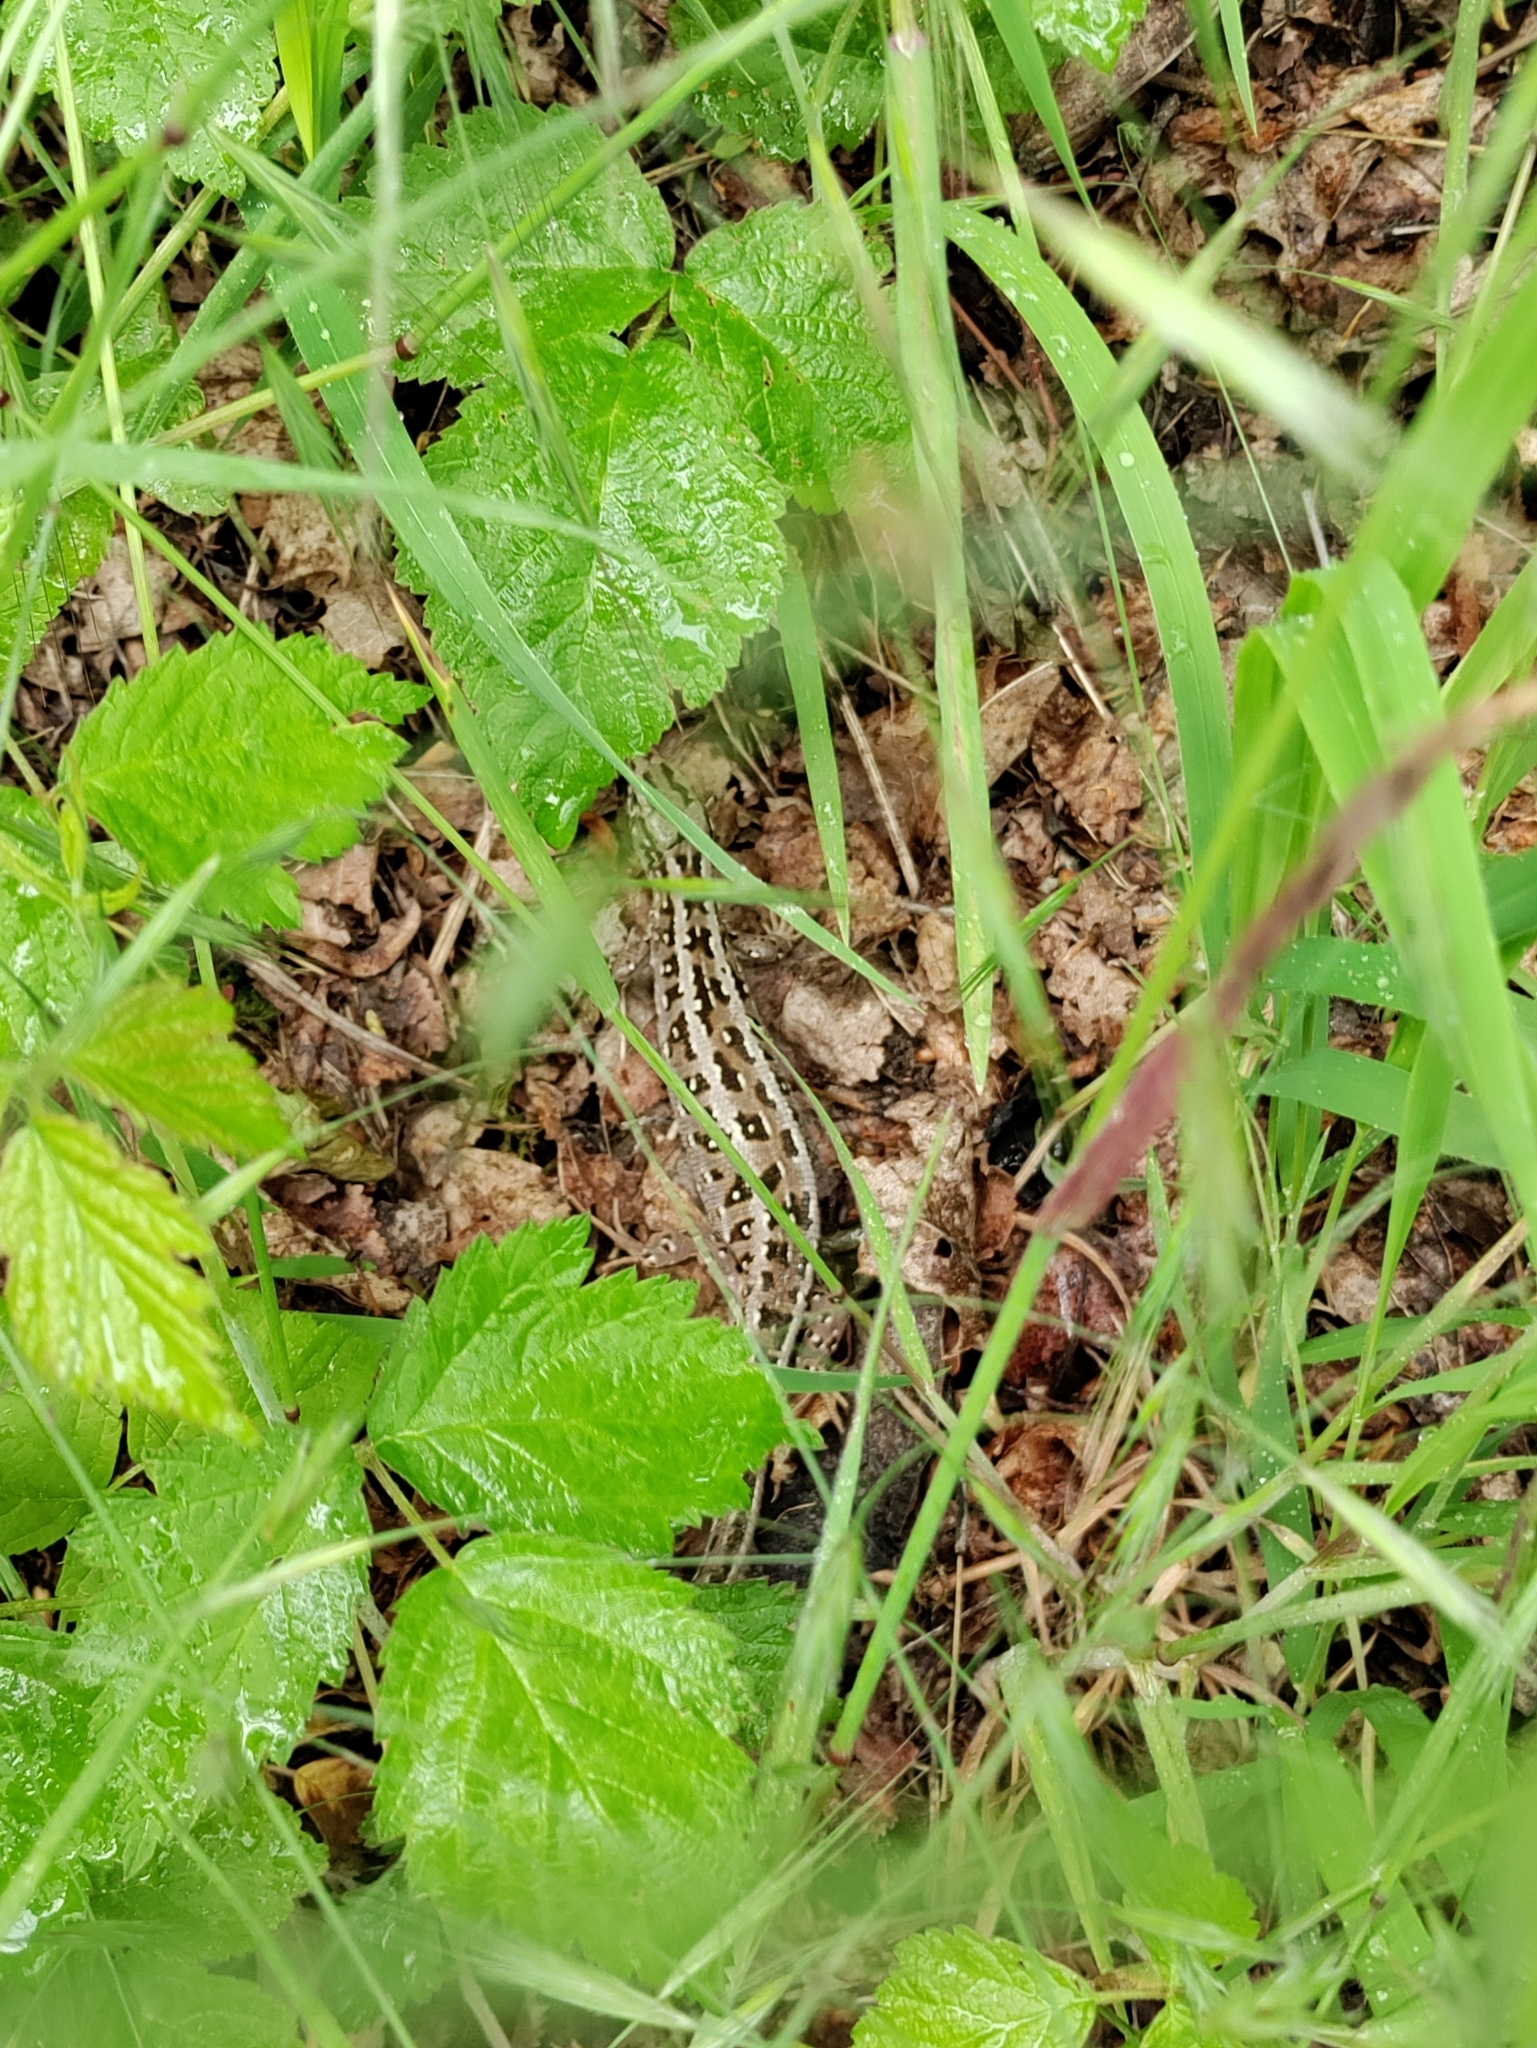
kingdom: Animalia
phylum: Chordata
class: Squamata
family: Lacertidae
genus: Lacerta
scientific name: Lacerta agilis
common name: Sand lizard
